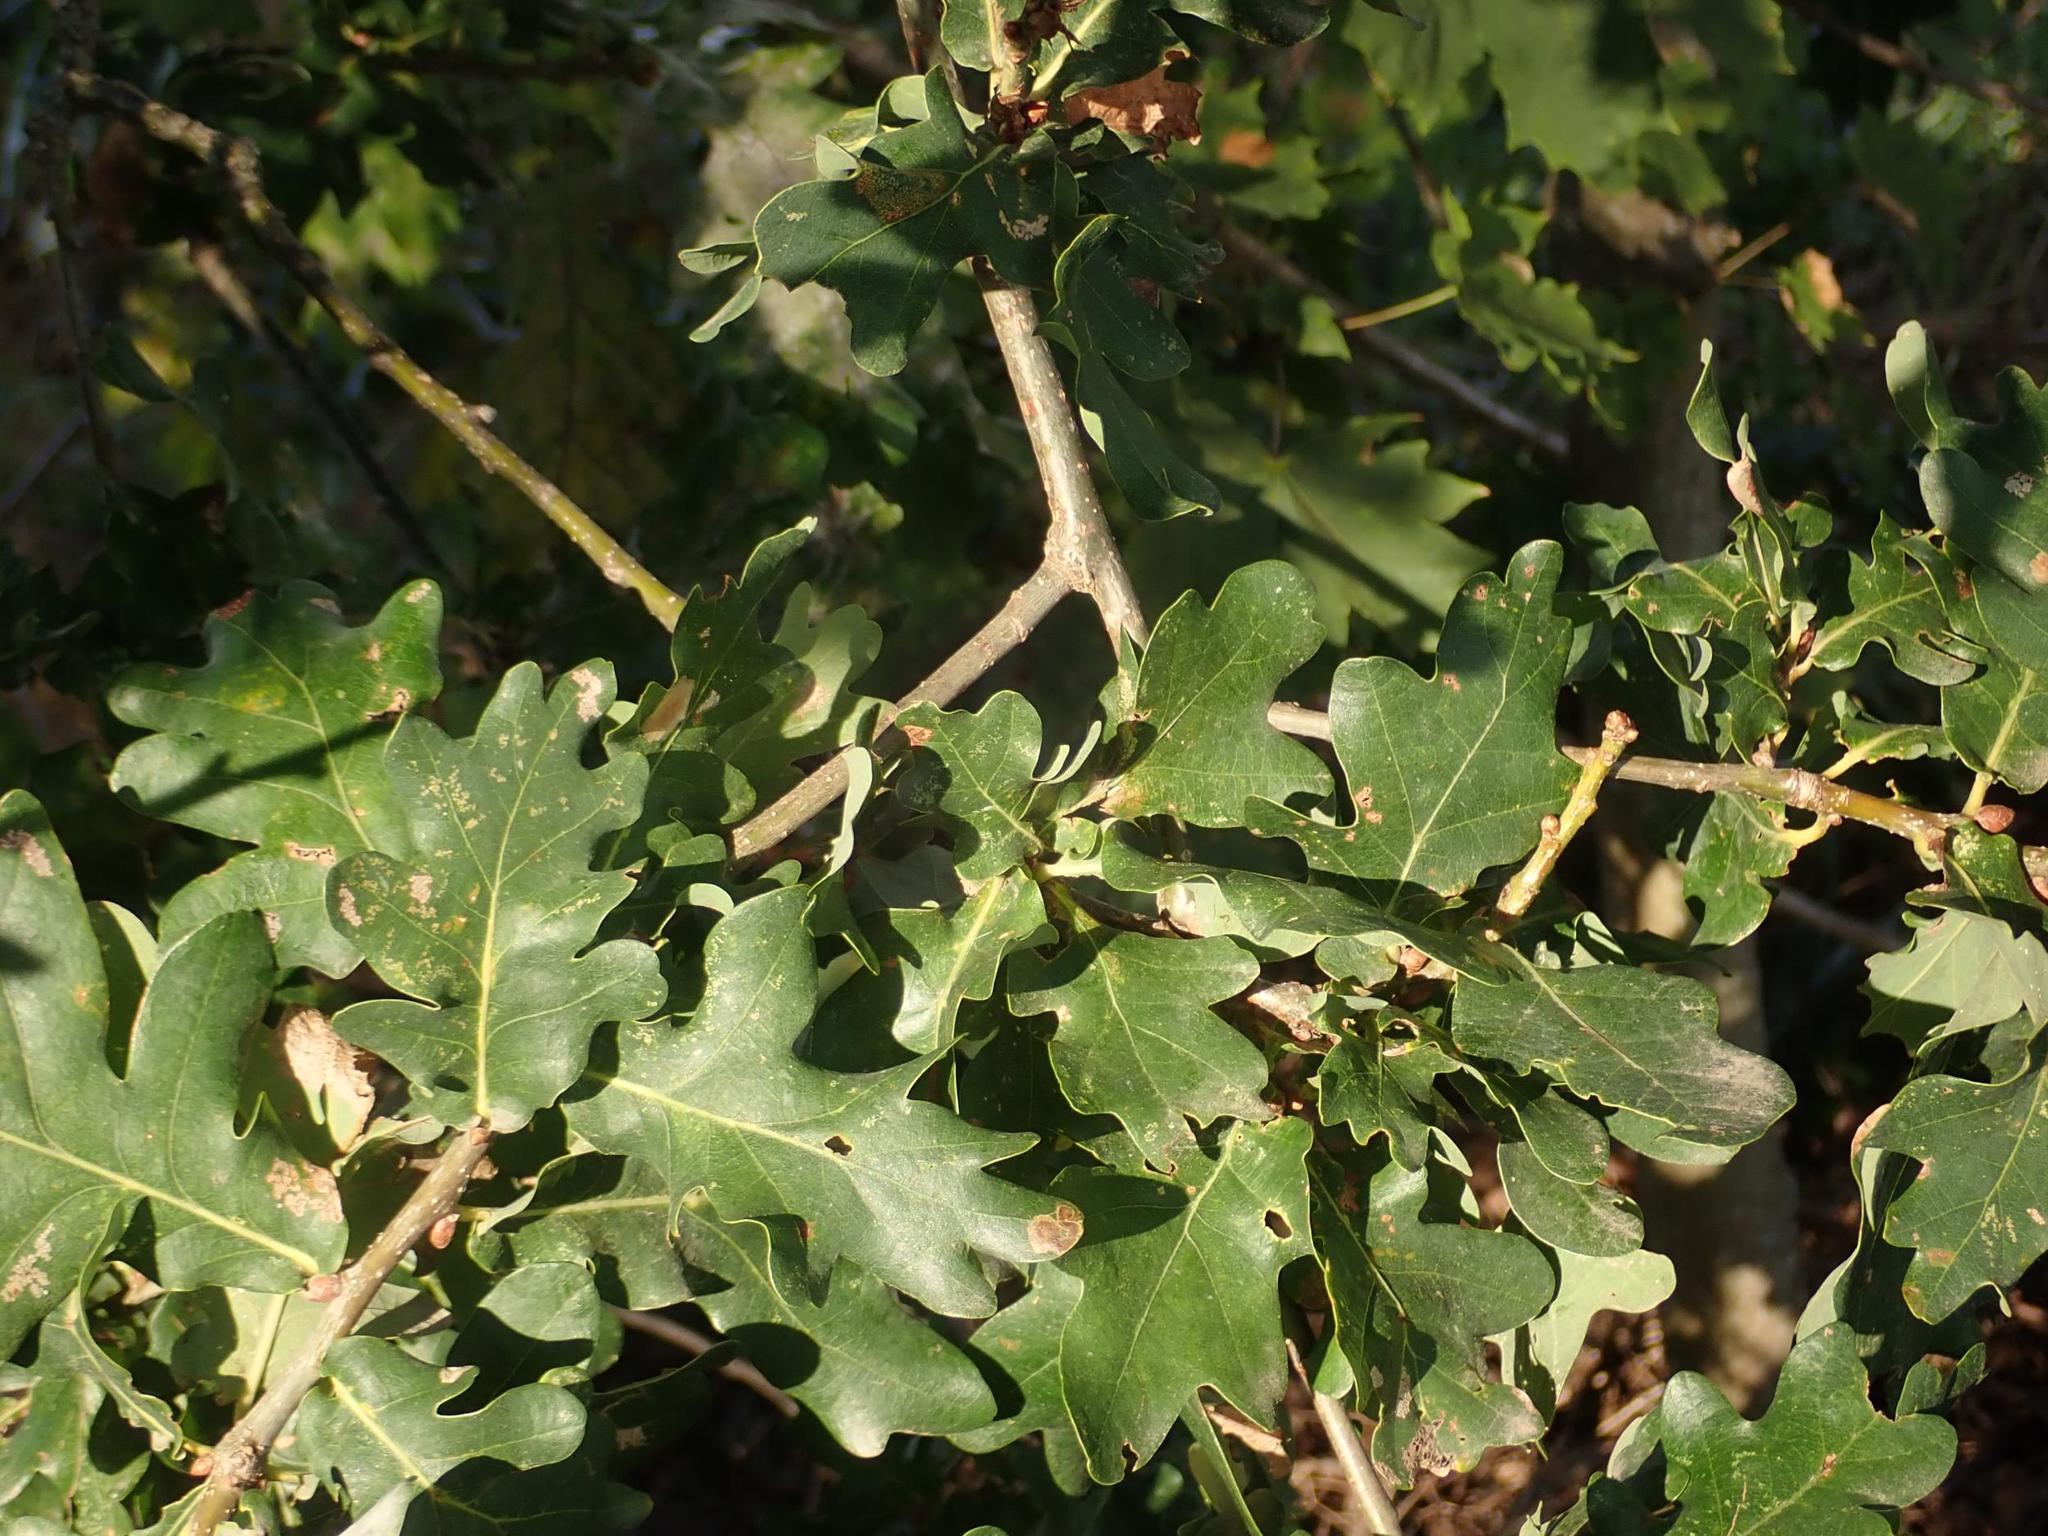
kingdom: Plantae
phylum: Tracheophyta
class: Magnoliopsida
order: Fagales
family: Fagaceae
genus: Quercus
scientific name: Quercus robur
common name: Pedunculate oak
